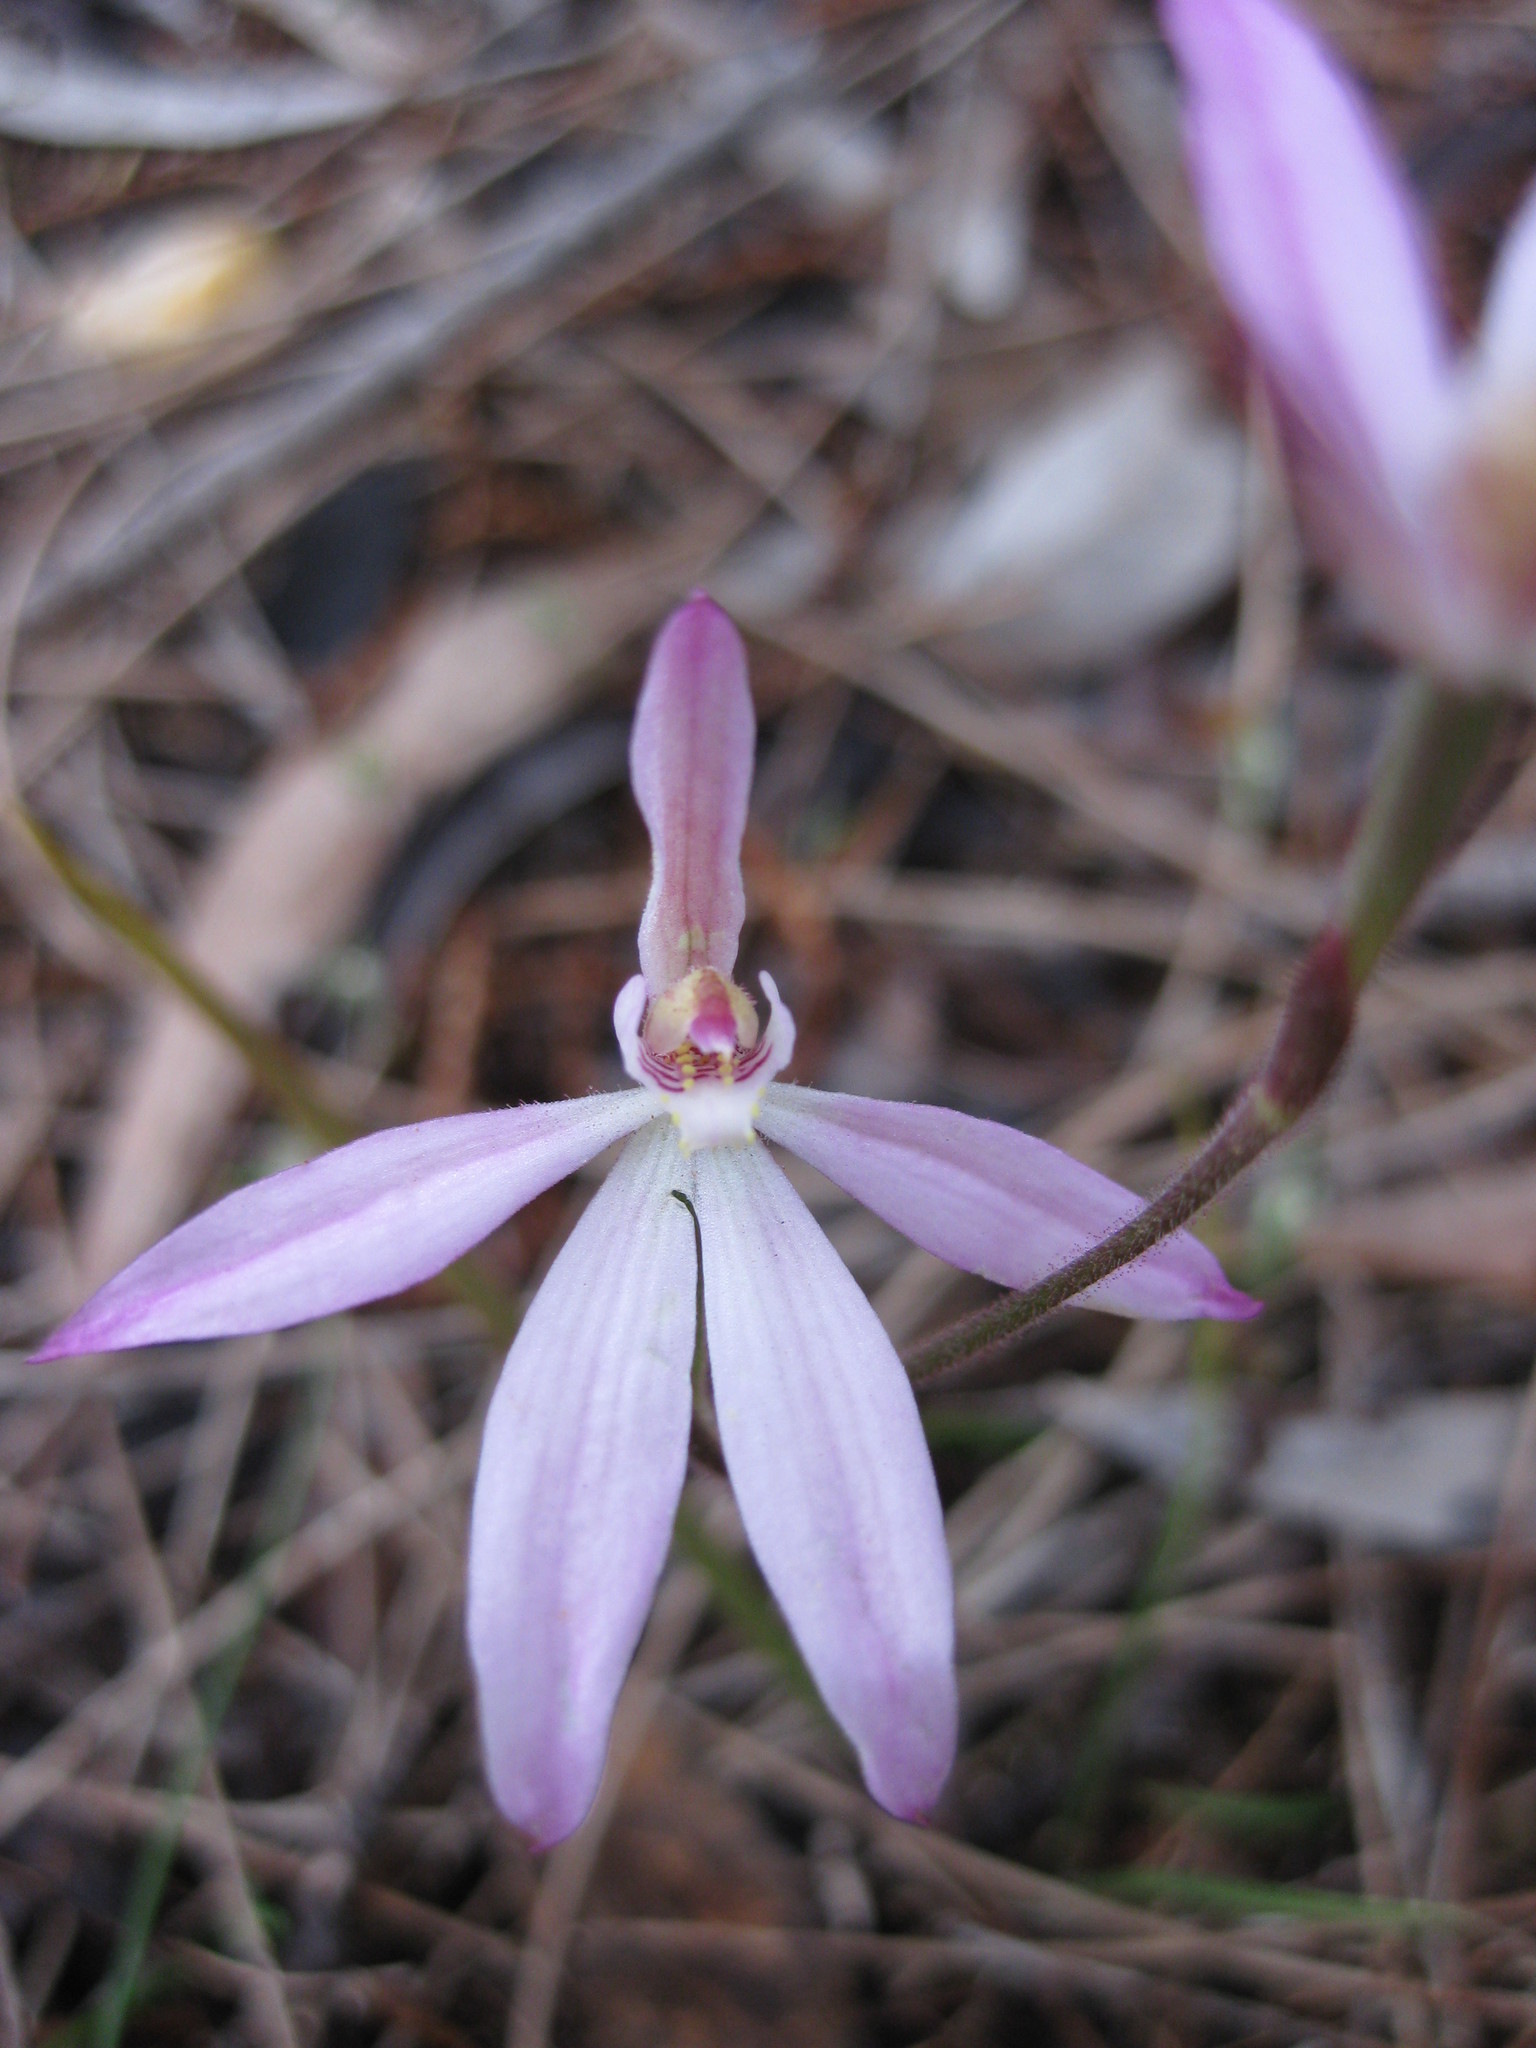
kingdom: Plantae
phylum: Tracheophyta
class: Liliopsida
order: Asparagales
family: Orchidaceae
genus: Caladenia
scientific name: Caladenia carnea
